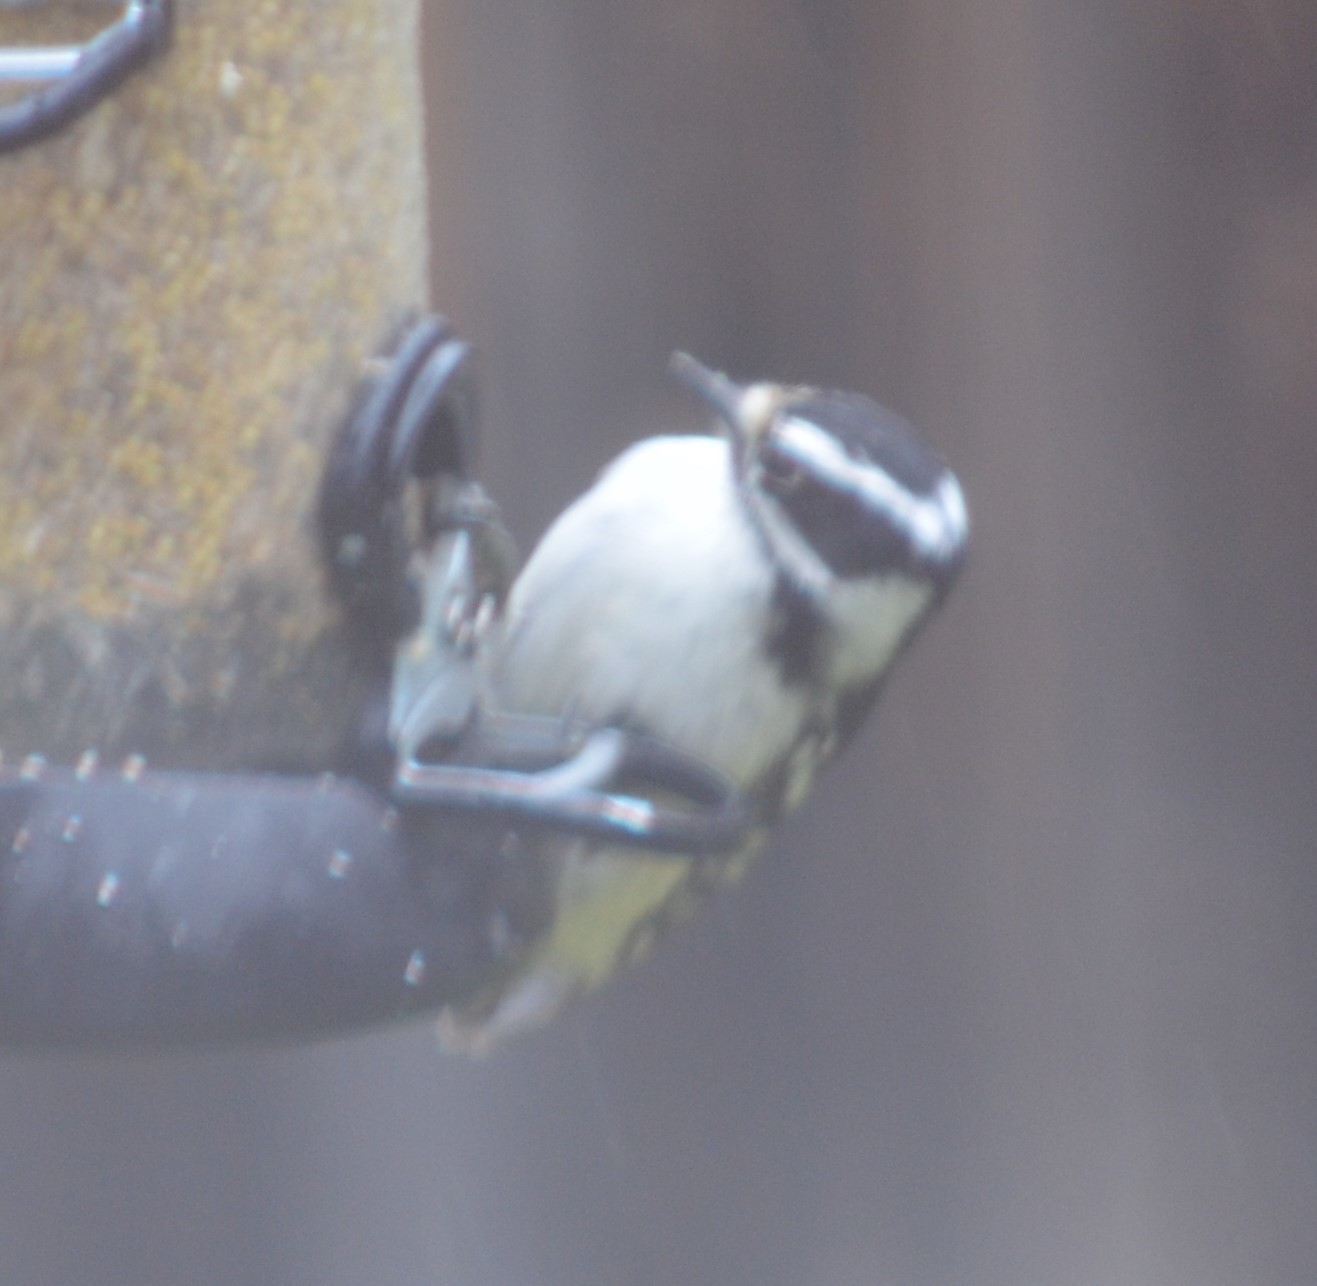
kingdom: Animalia
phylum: Chordata
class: Aves
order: Piciformes
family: Picidae
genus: Dryobates
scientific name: Dryobates pubescens
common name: Downy woodpecker
